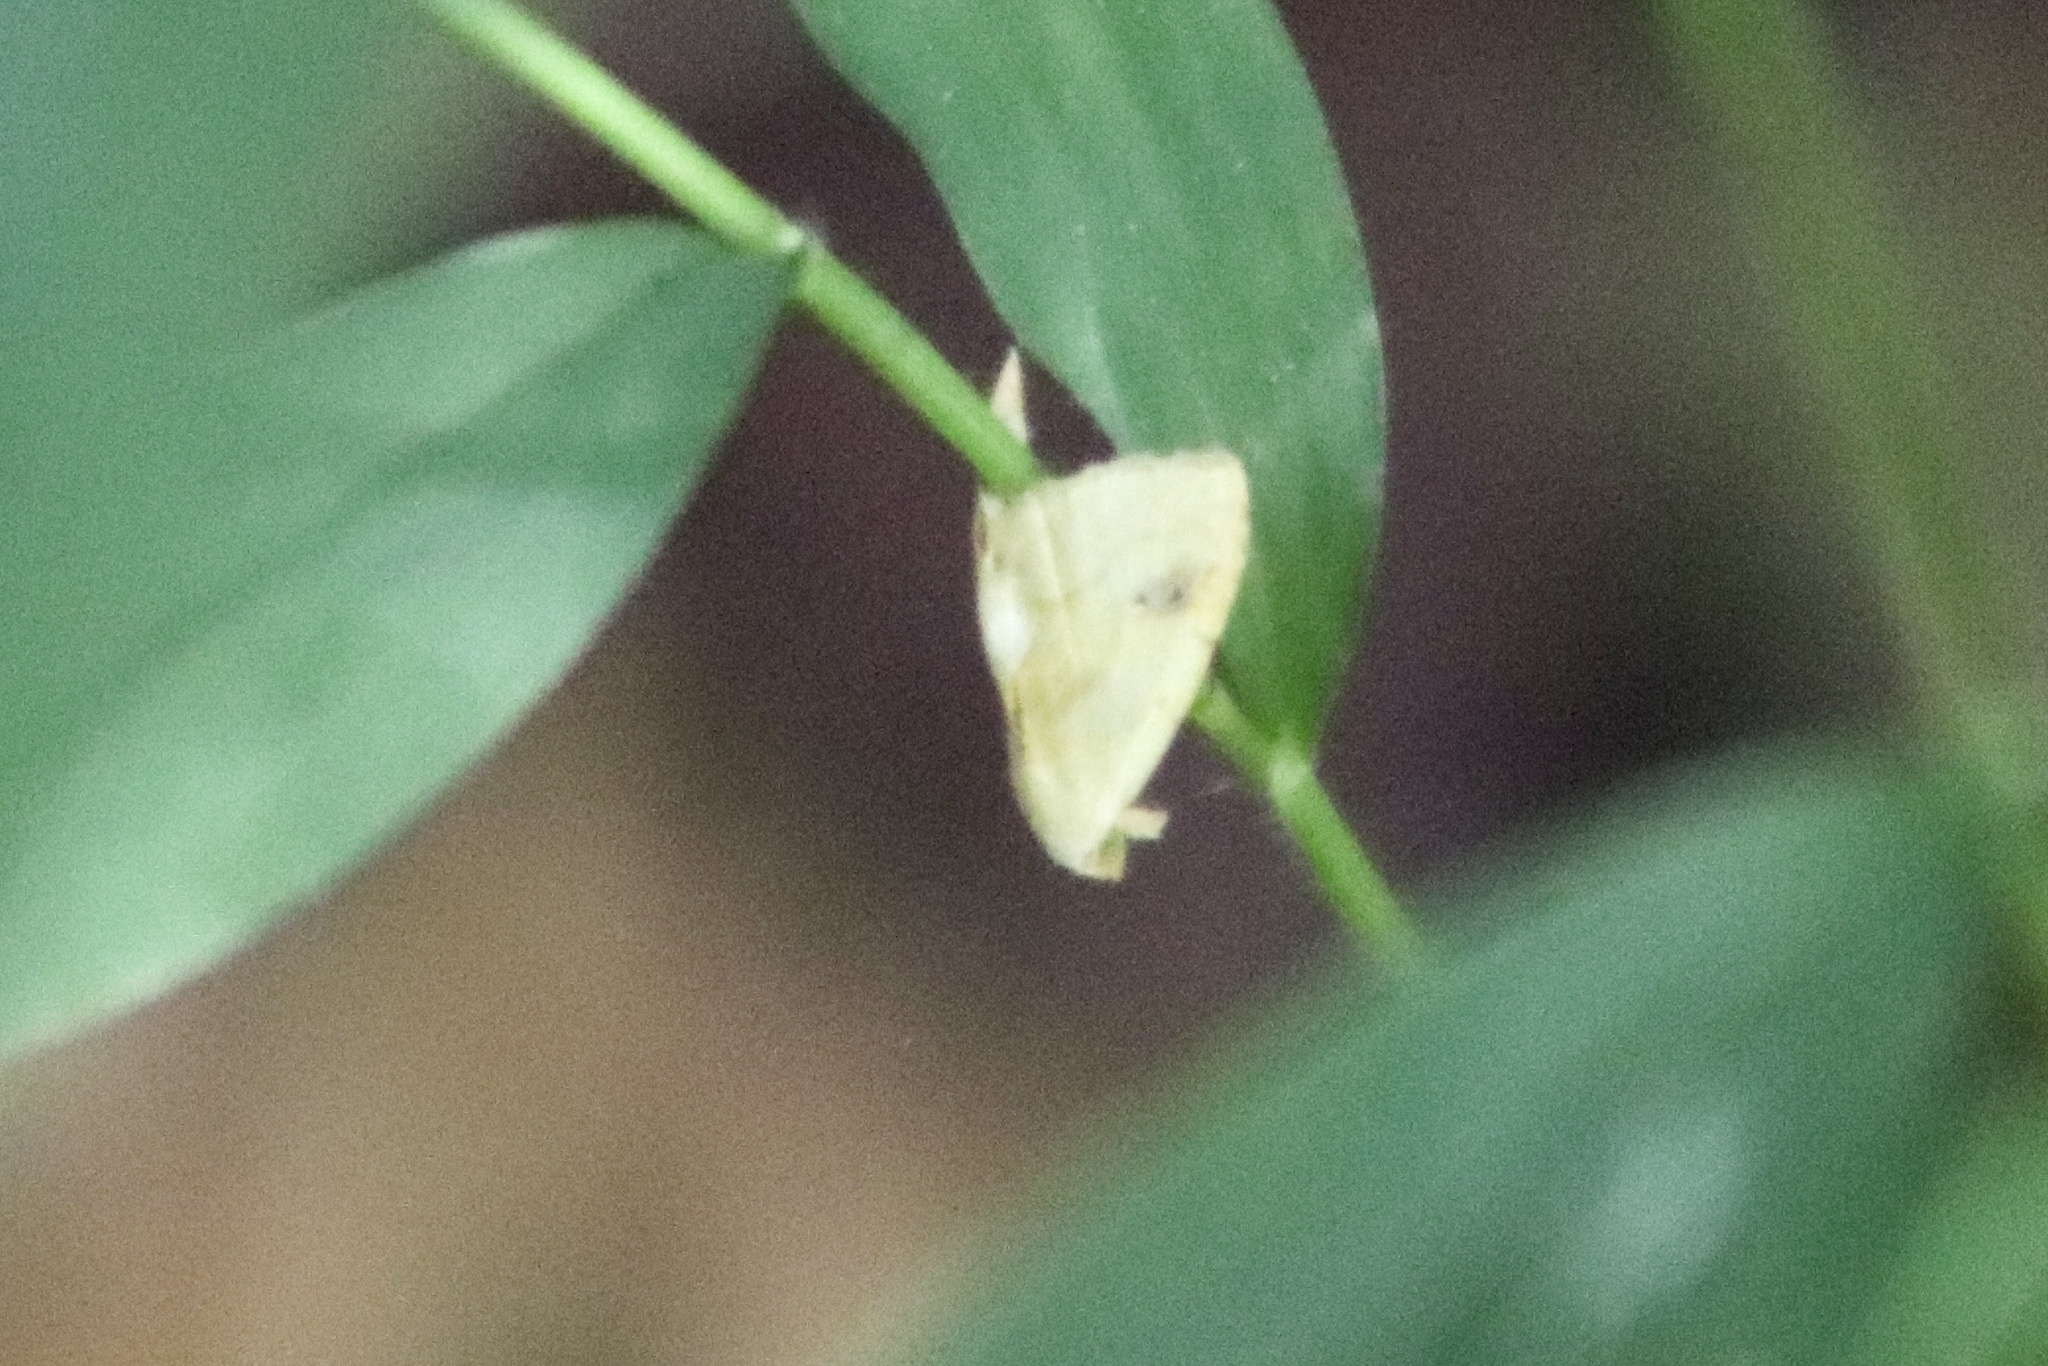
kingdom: Animalia
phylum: Arthropoda
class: Insecta
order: Lepidoptera
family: Erebidae
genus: Rivula
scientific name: Rivula propinqualis
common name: Spotted grass moth
